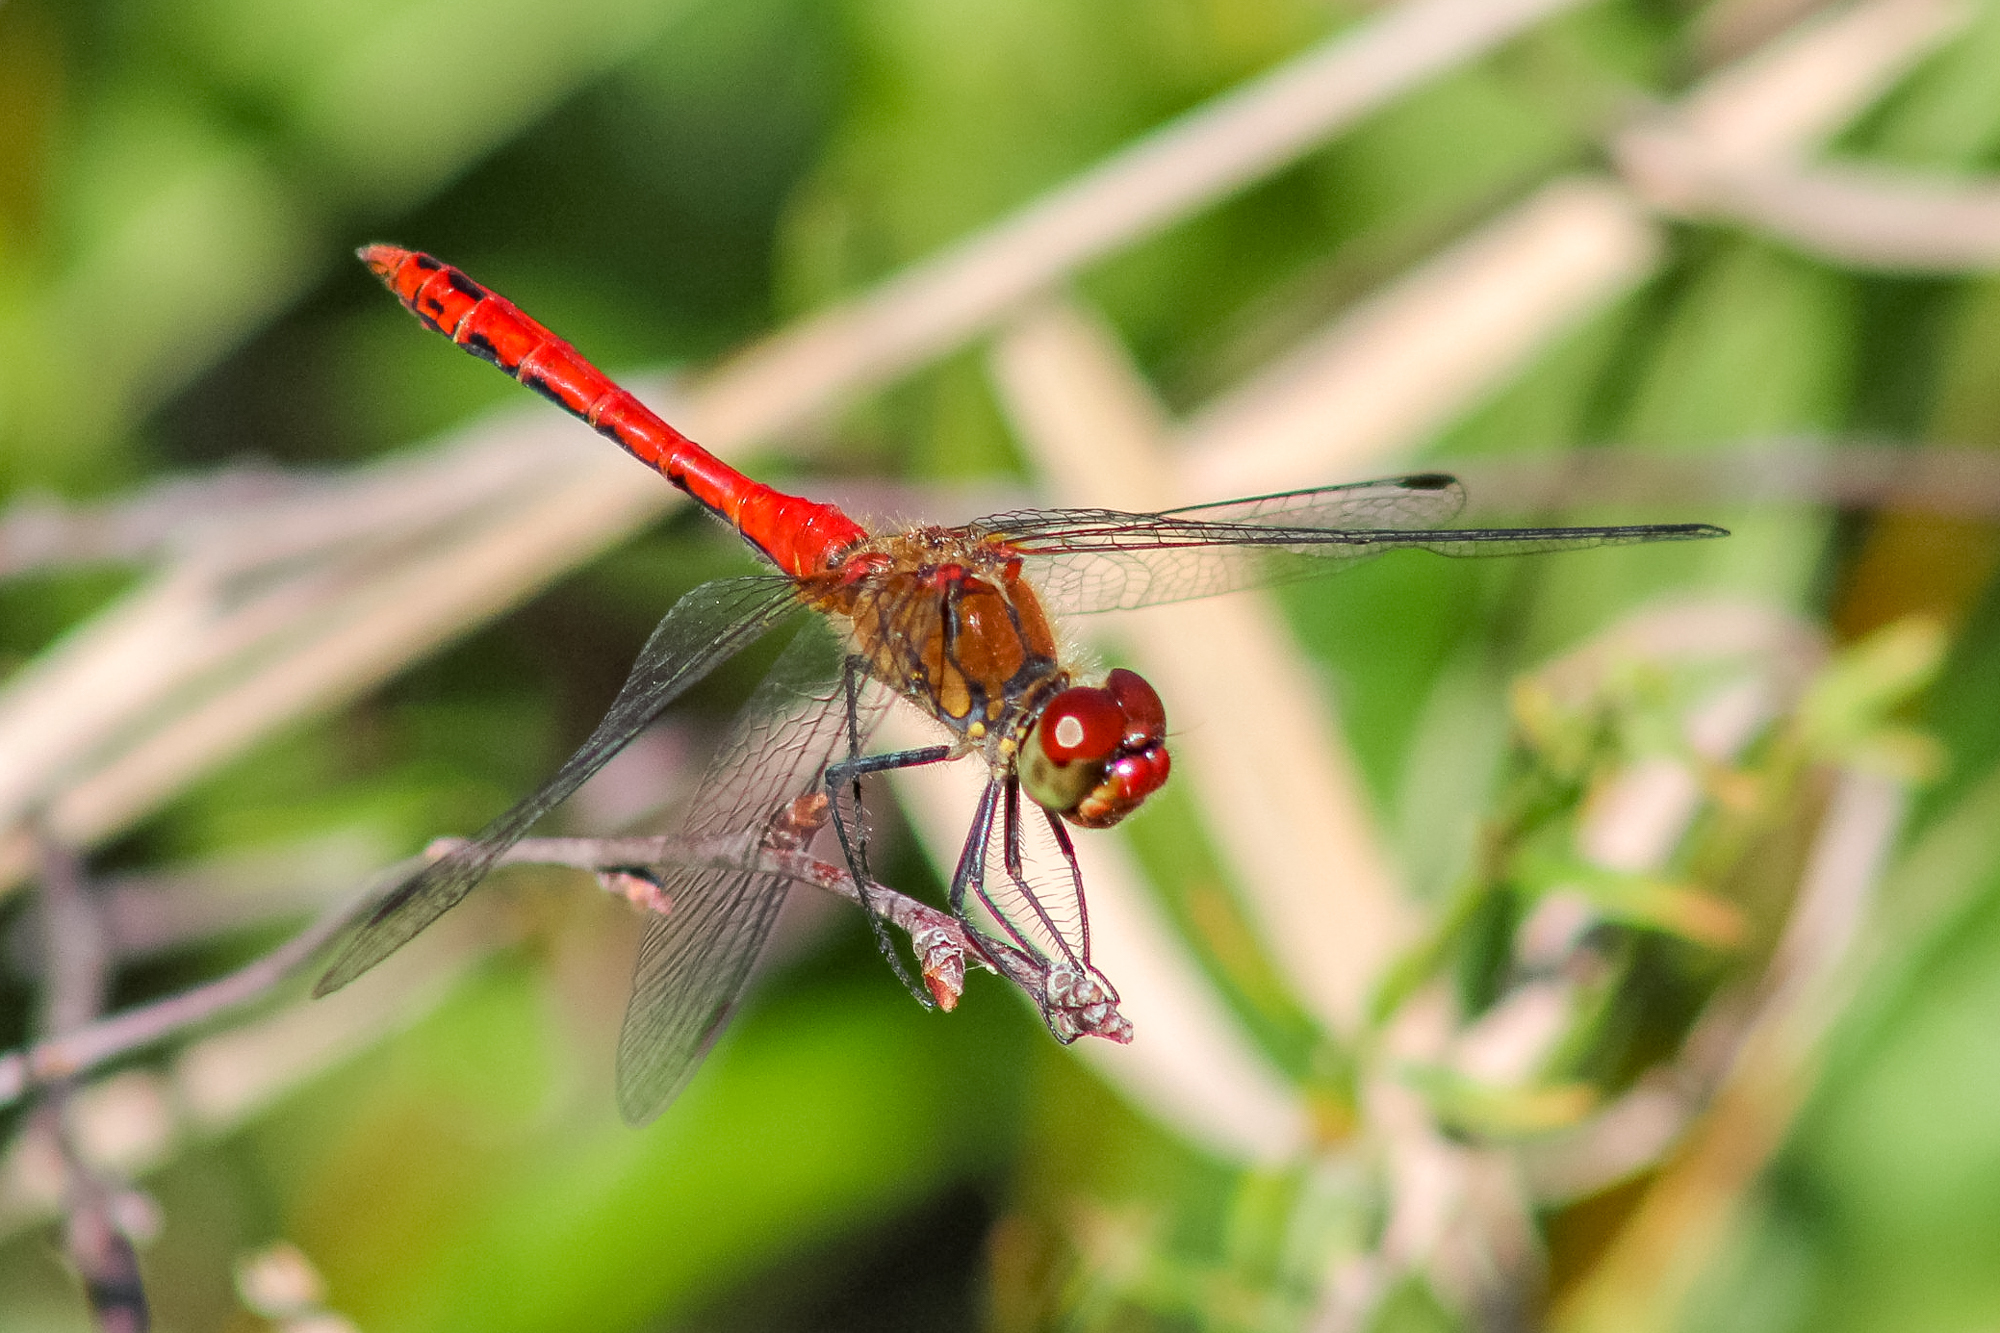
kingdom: Animalia
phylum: Arthropoda
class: Insecta
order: Odonata
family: Libellulidae
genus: Sympetrum
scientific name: Sympetrum sanguineum
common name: Ruddy darter
